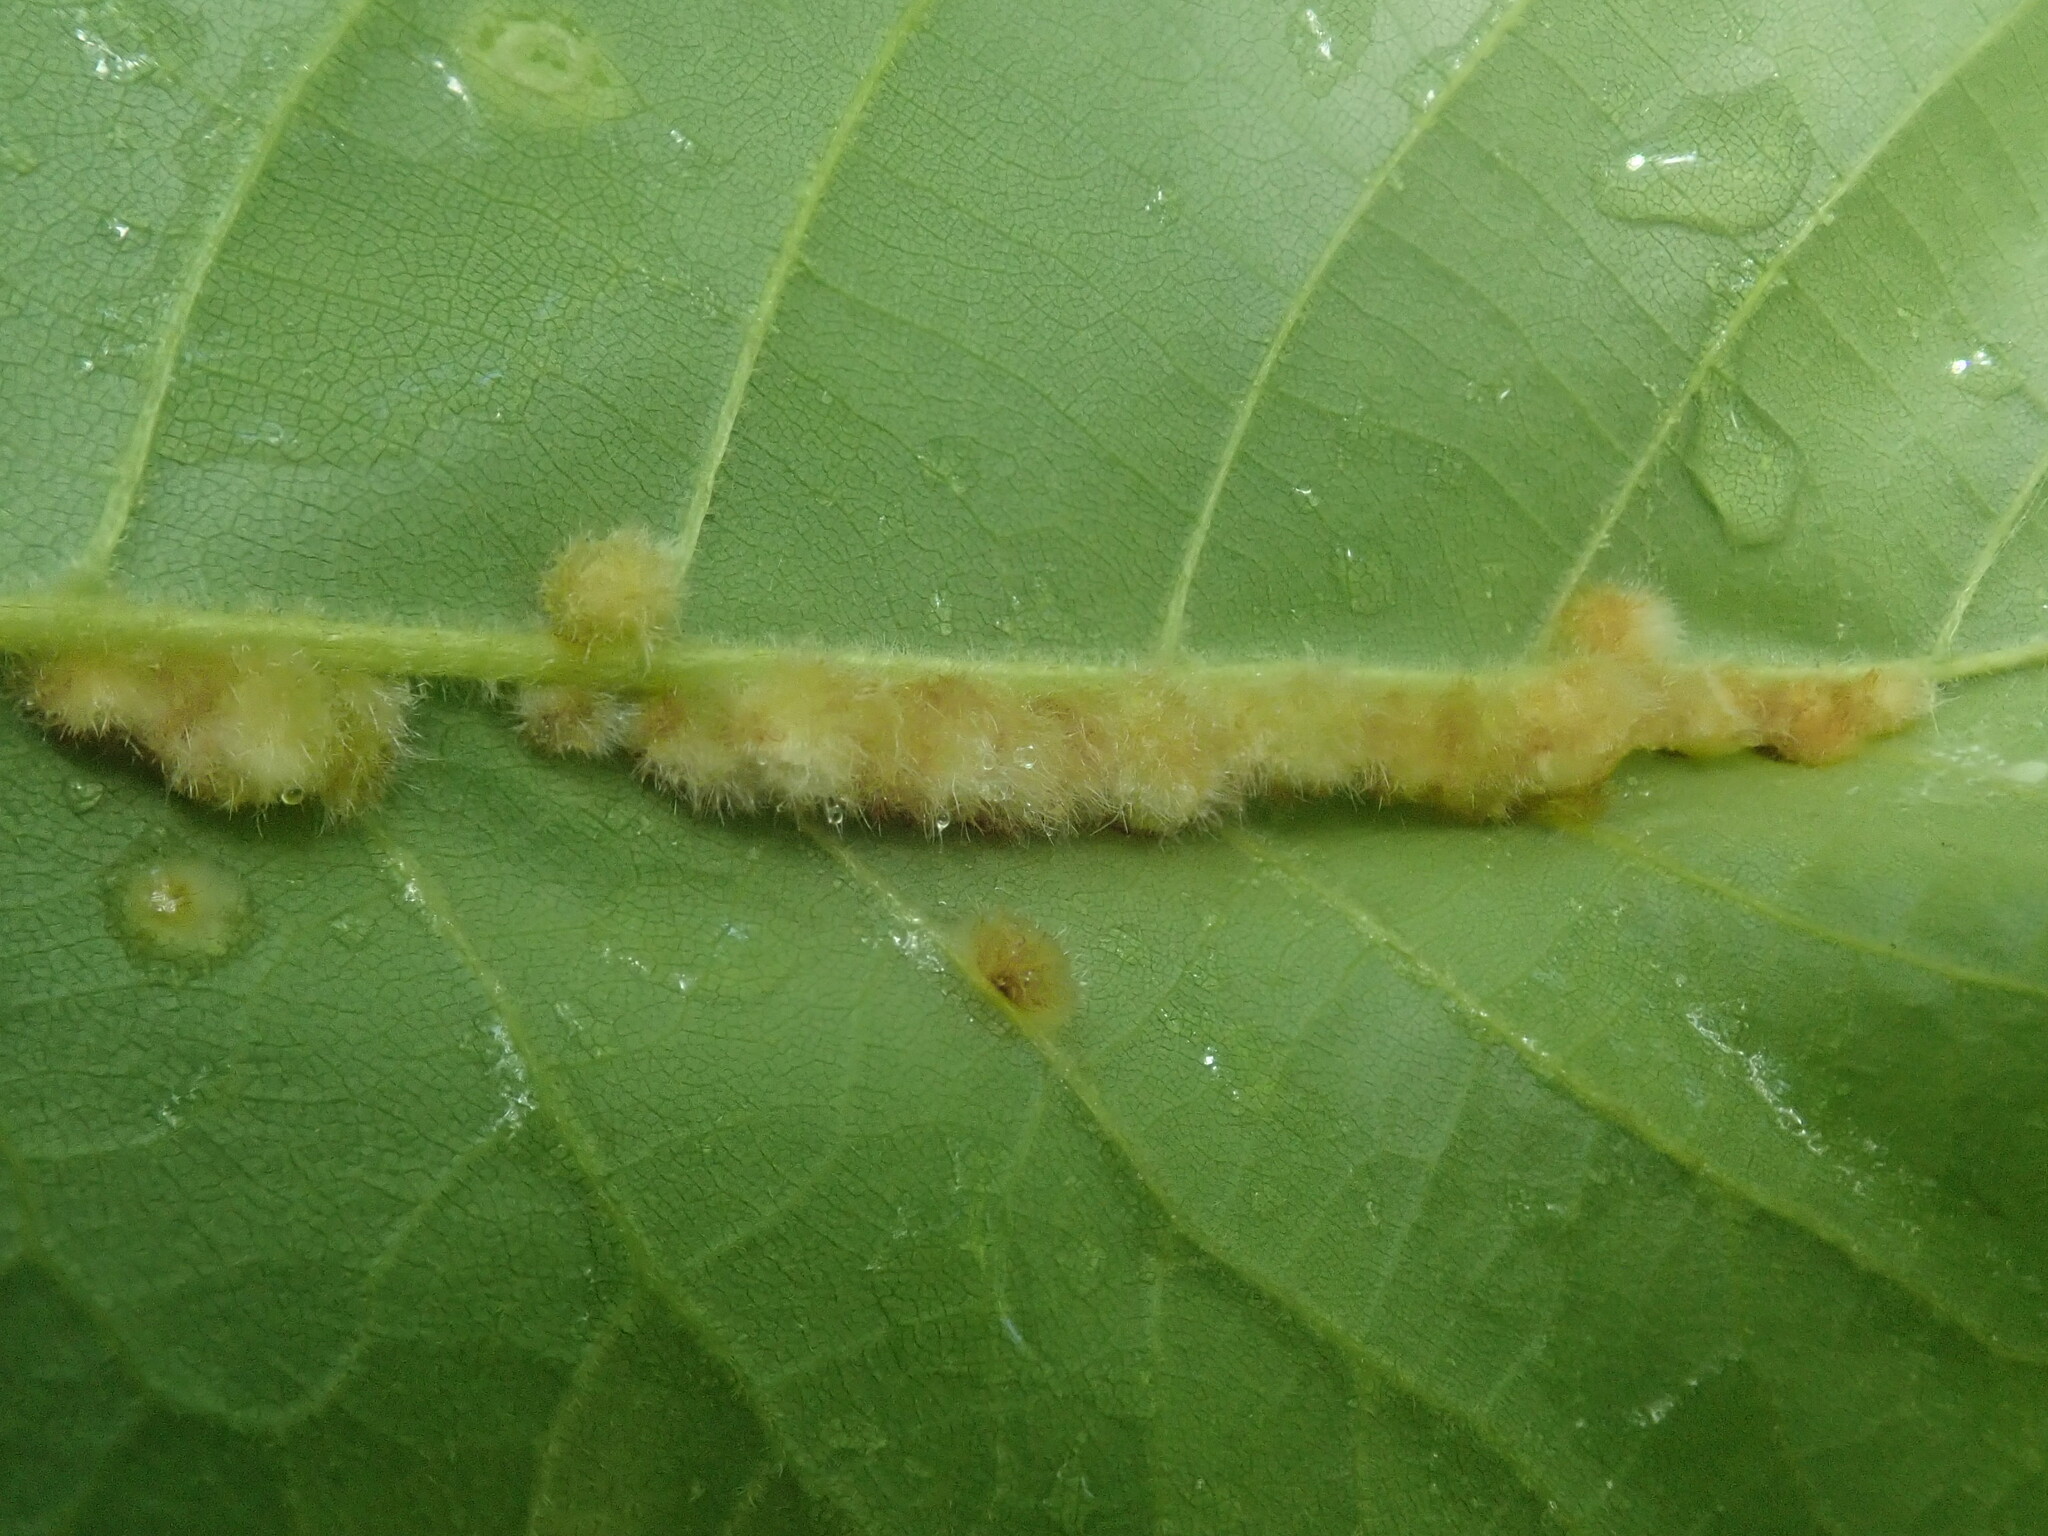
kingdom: Animalia
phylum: Arthropoda
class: Insecta
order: Diptera
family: Cecidomyiidae
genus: Caryomyia
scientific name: Caryomyia aggregata
